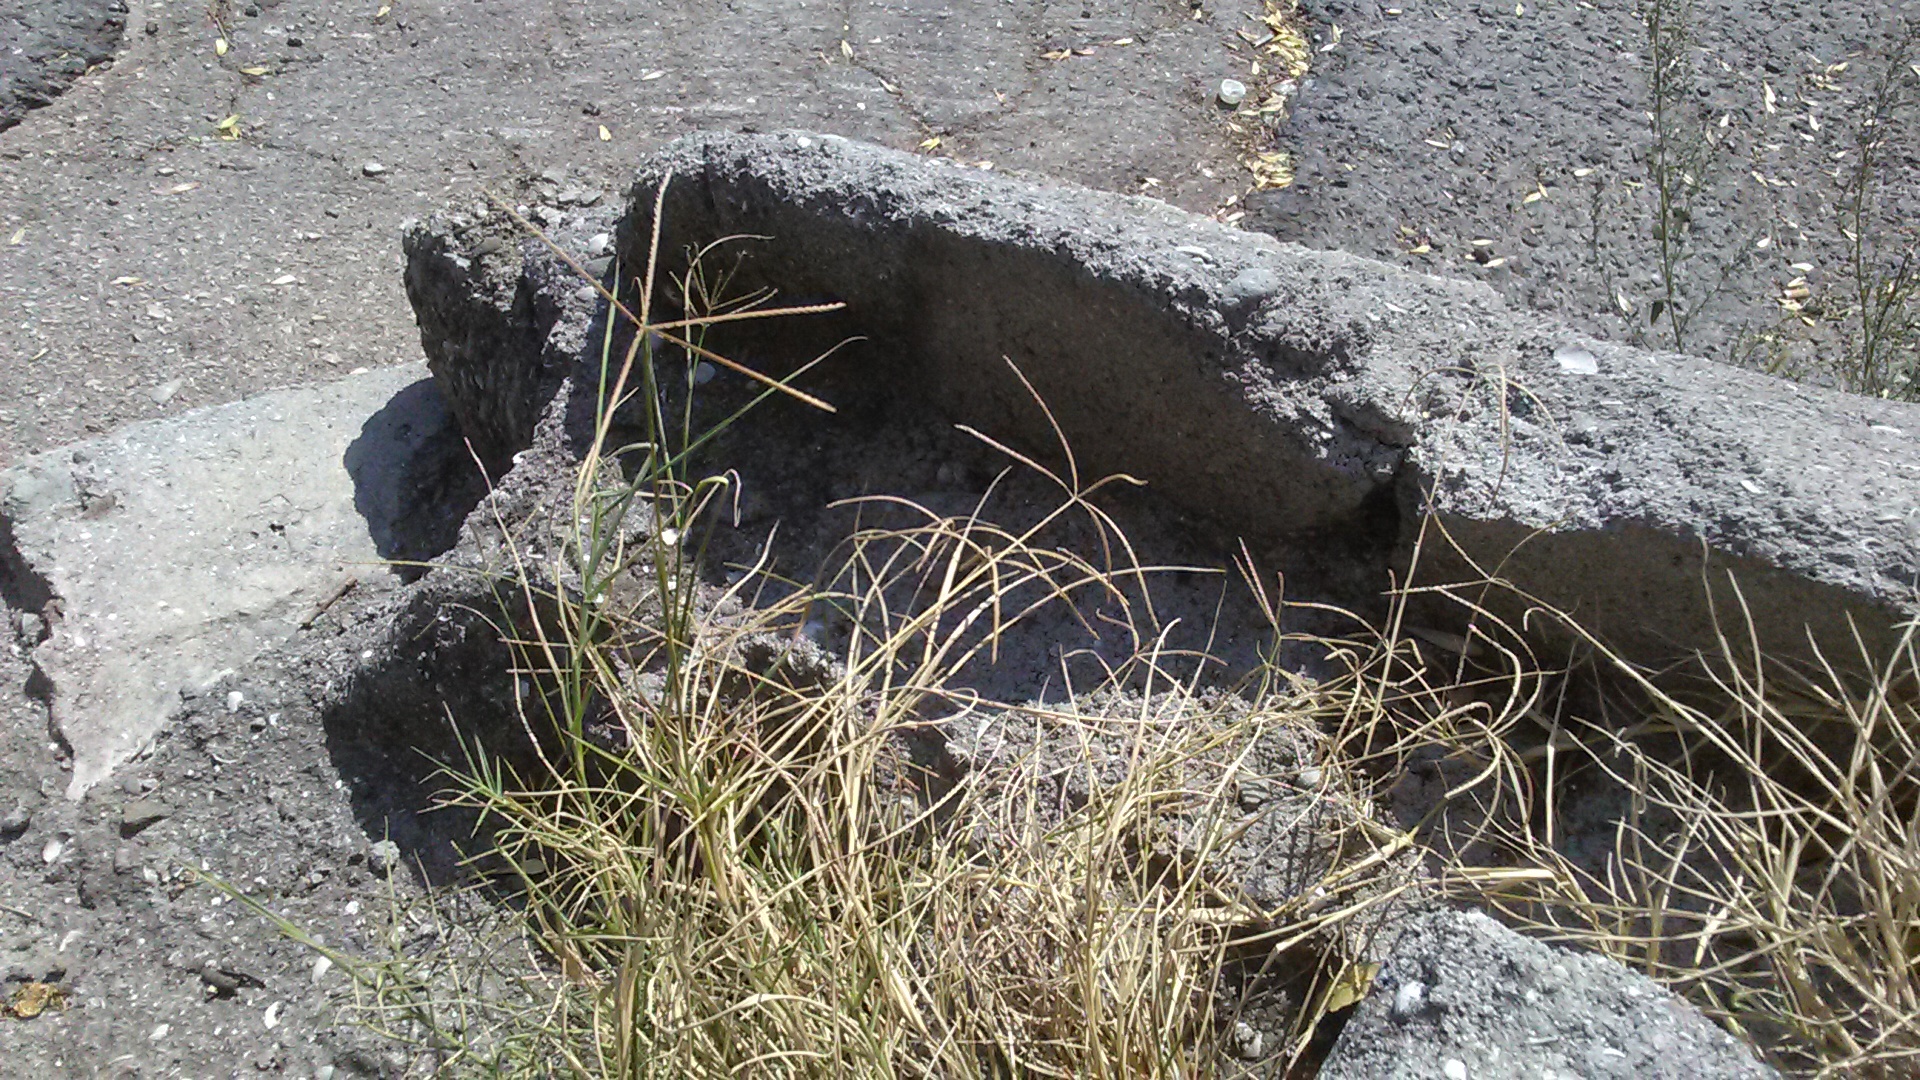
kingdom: Plantae
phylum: Tracheophyta
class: Liliopsida
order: Poales
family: Poaceae
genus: Cynodon
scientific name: Cynodon dactylon
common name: Bermuda grass
